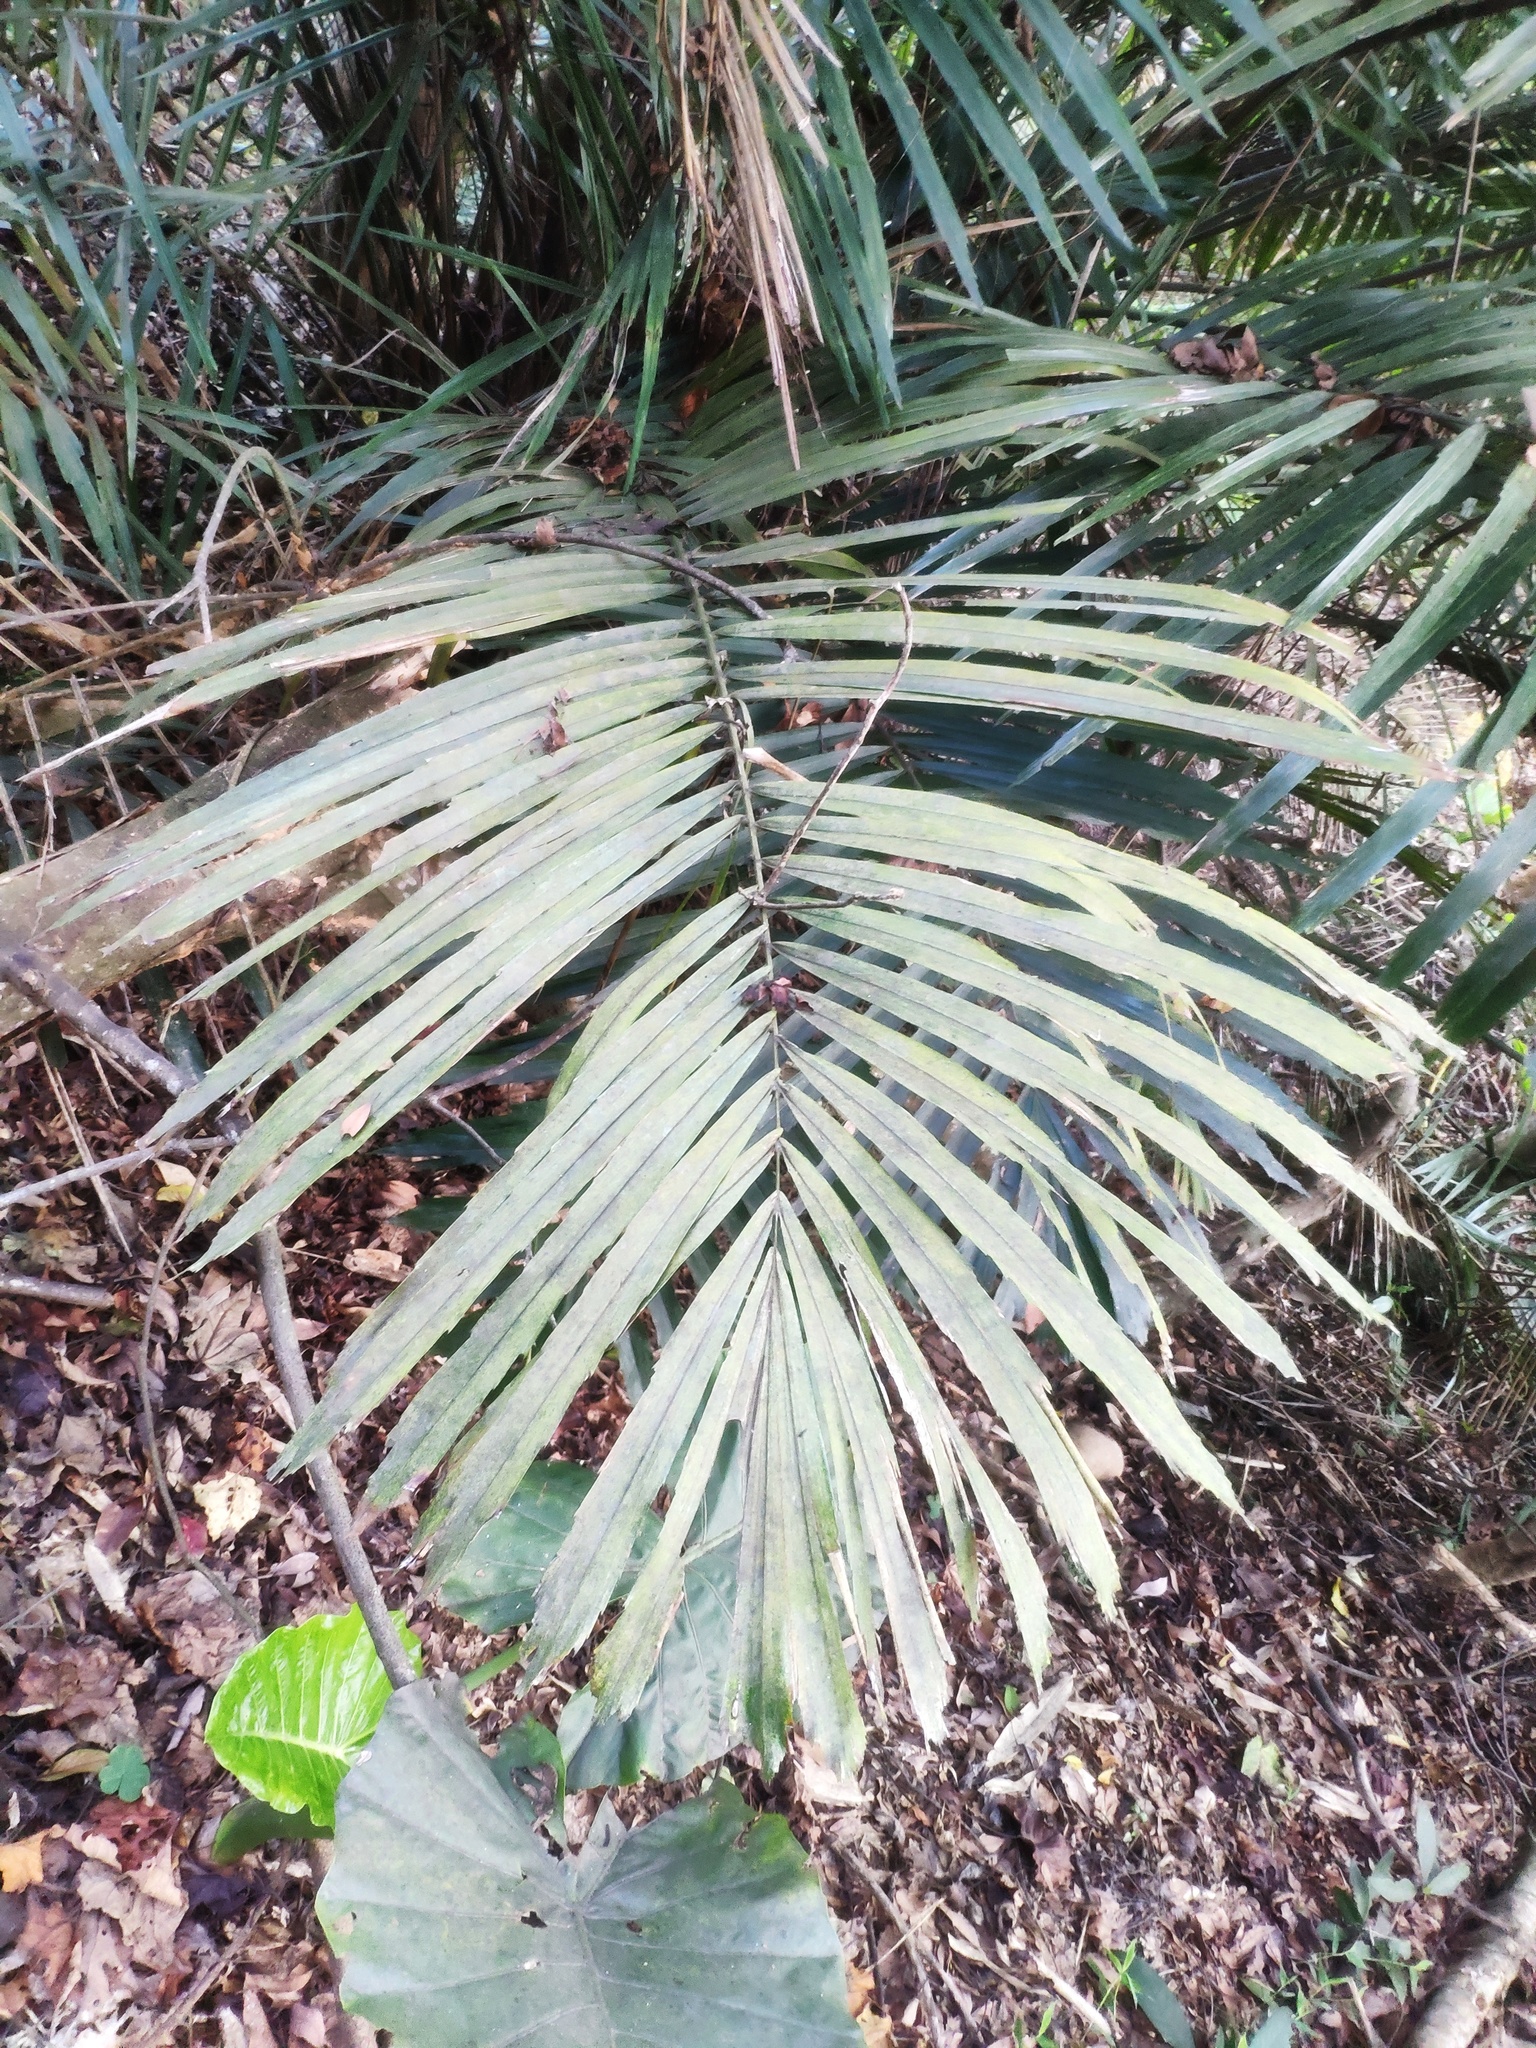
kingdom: Plantae
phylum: Tracheophyta
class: Liliopsida
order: Arecales
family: Arecaceae
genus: Arenga
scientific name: Arenga engleri
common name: Formosan sugar palm
